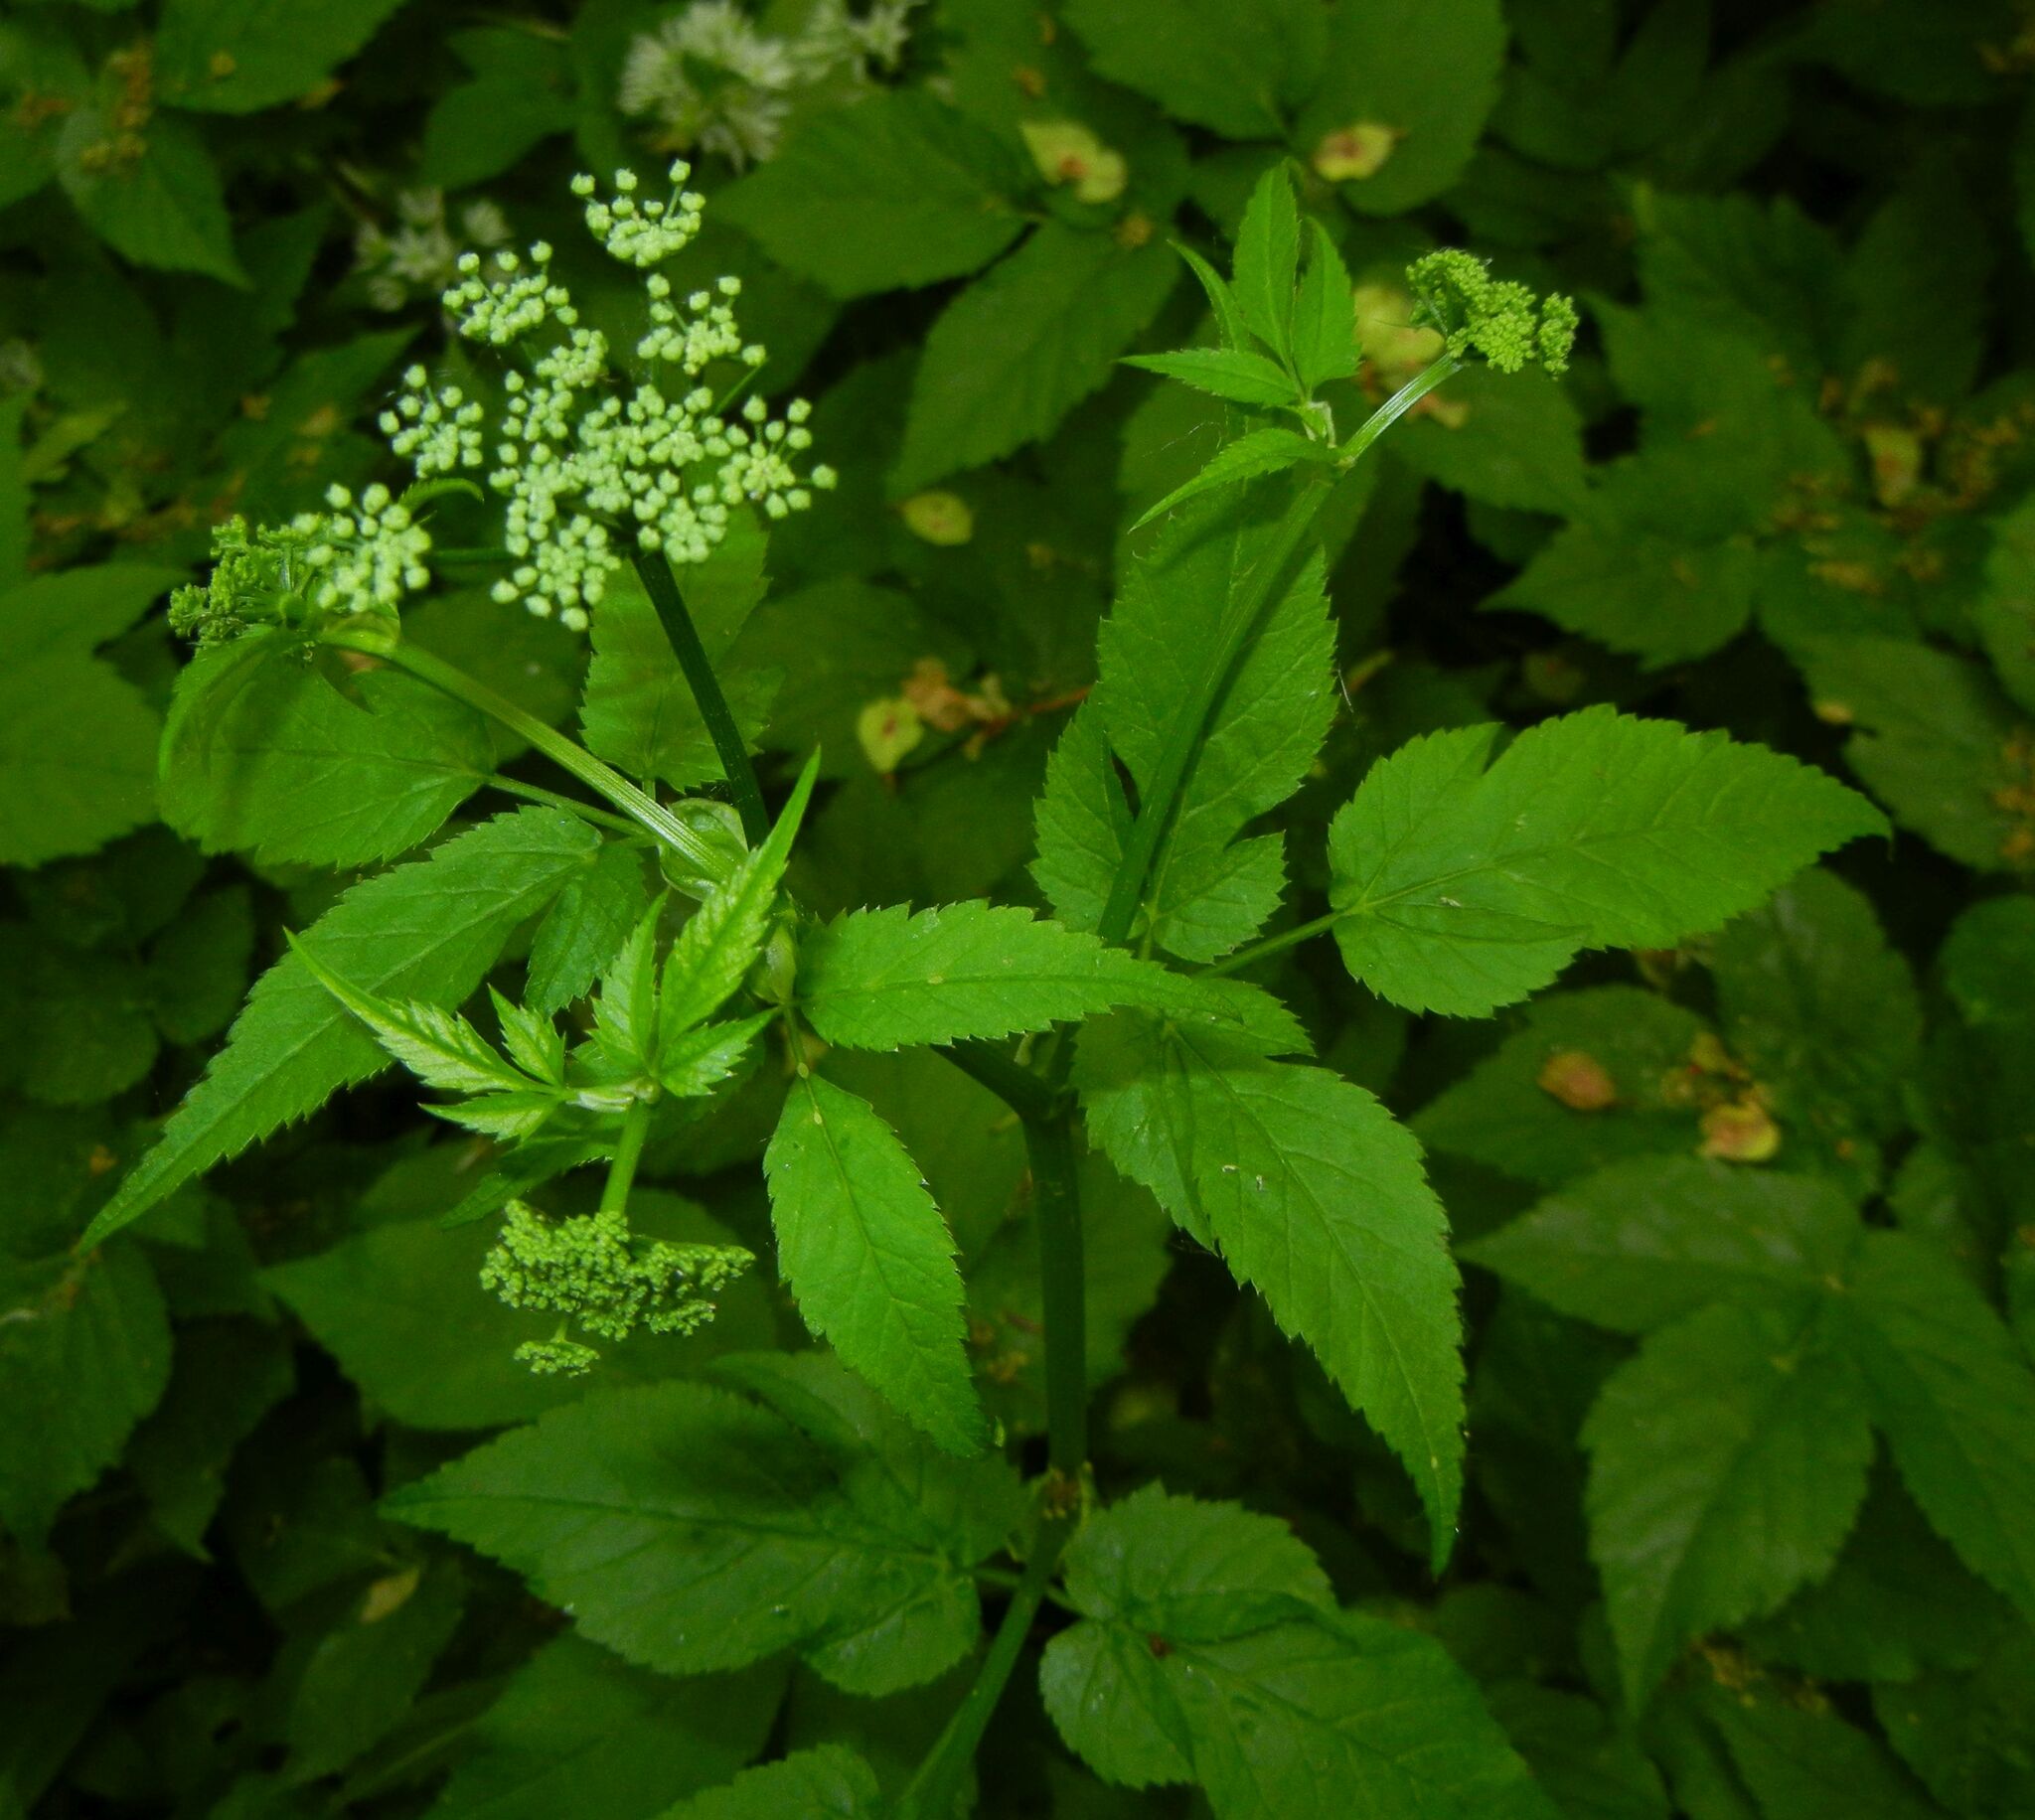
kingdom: Plantae
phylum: Tracheophyta
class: Magnoliopsida
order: Apiales
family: Apiaceae
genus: Aegopodium
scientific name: Aegopodium podagraria
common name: Ground-elder
